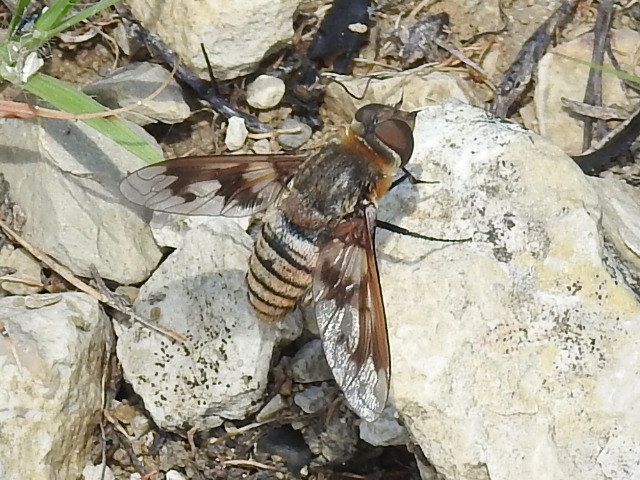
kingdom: Animalia
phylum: Arthropoda
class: Insecta
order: Diptera
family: Bombyliidae
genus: Exoprosopa
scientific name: Exoprosopa fascipennis
